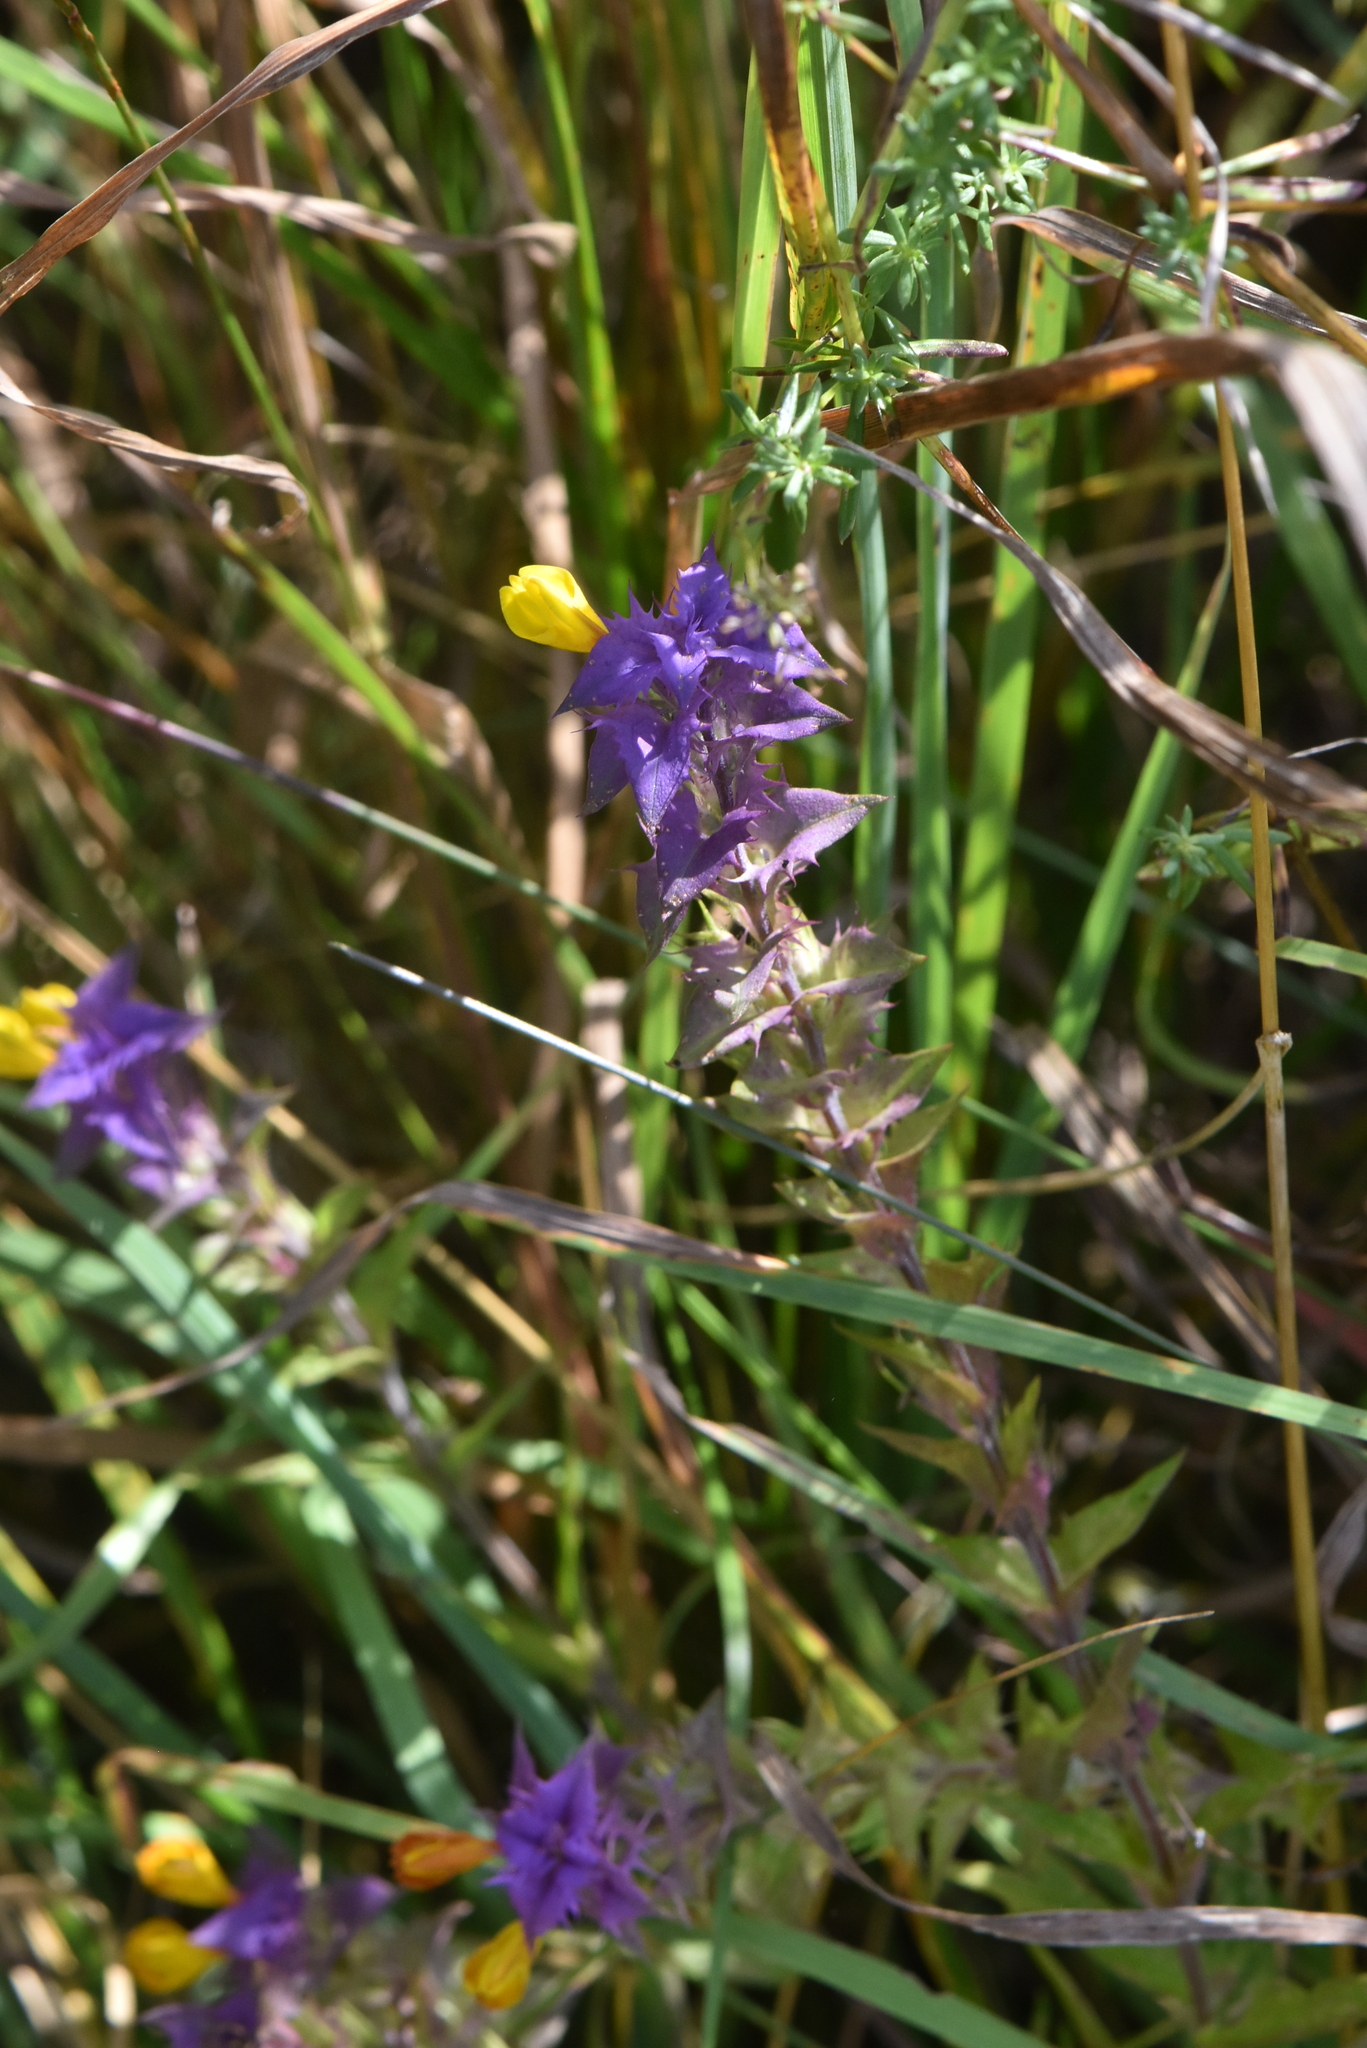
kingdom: Plantae
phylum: Tracheophyta
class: Magnoliopsida
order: Lamiales
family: Orobanchaceae
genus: Melampyrum
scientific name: Melampyrum nemorosum
